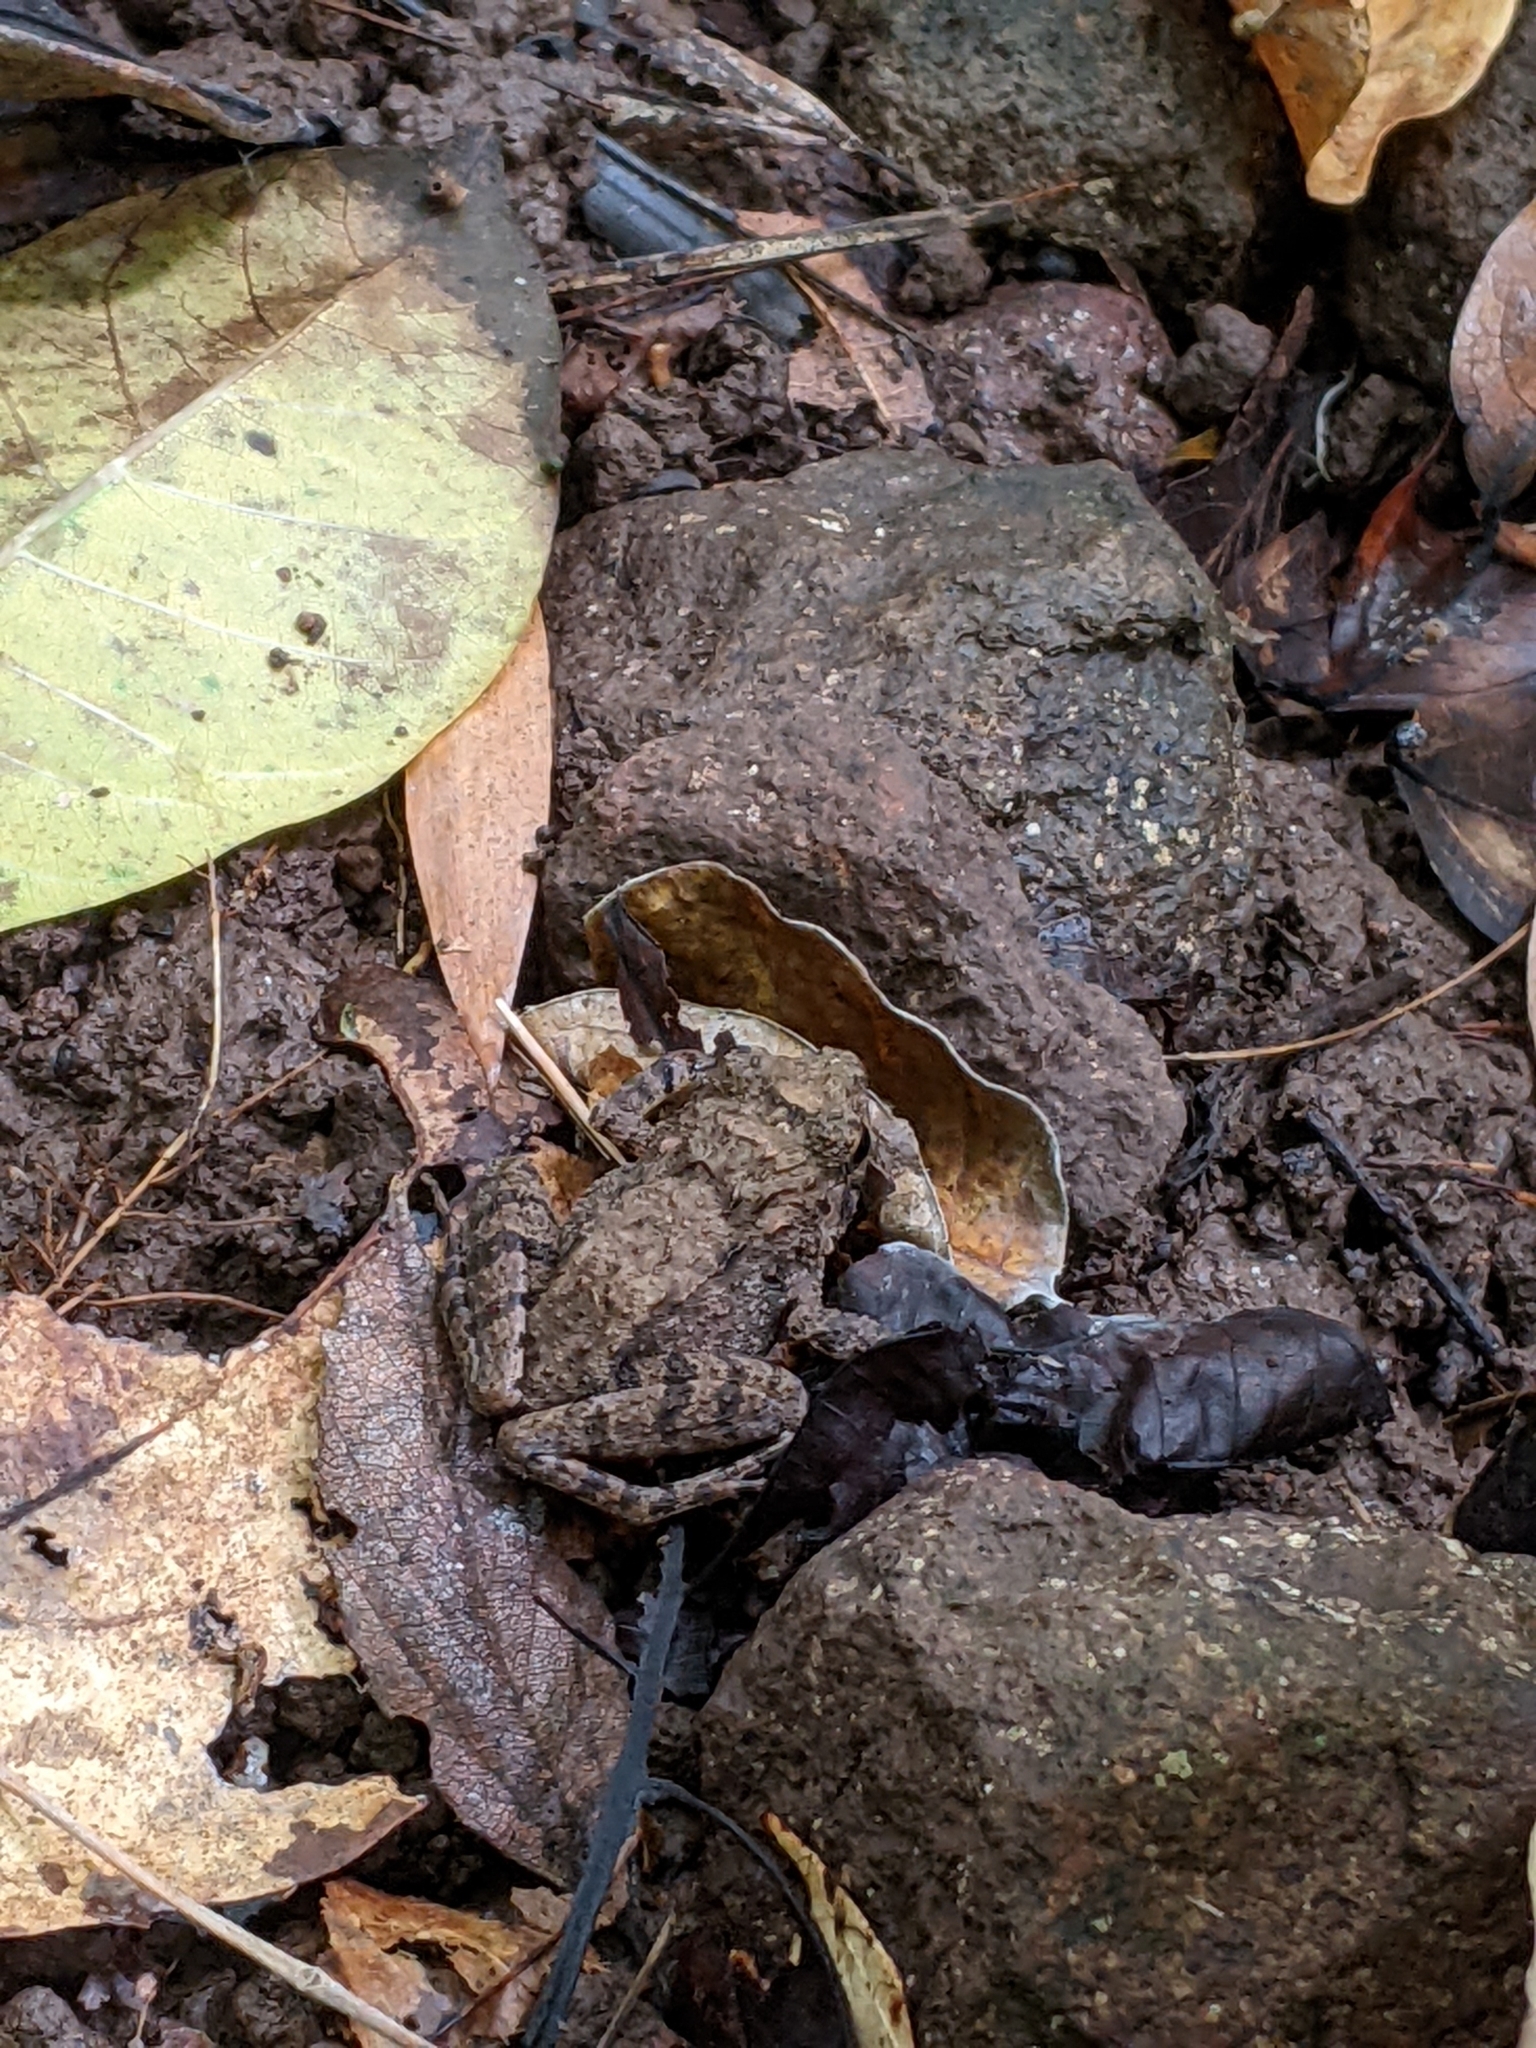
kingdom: Animalia
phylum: Chordata
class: Amphibia
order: Anura
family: Ceratobatrachidae
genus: Platymantis
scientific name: Platymantis dorsalis
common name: Dumeril's wrinkled ground frog
